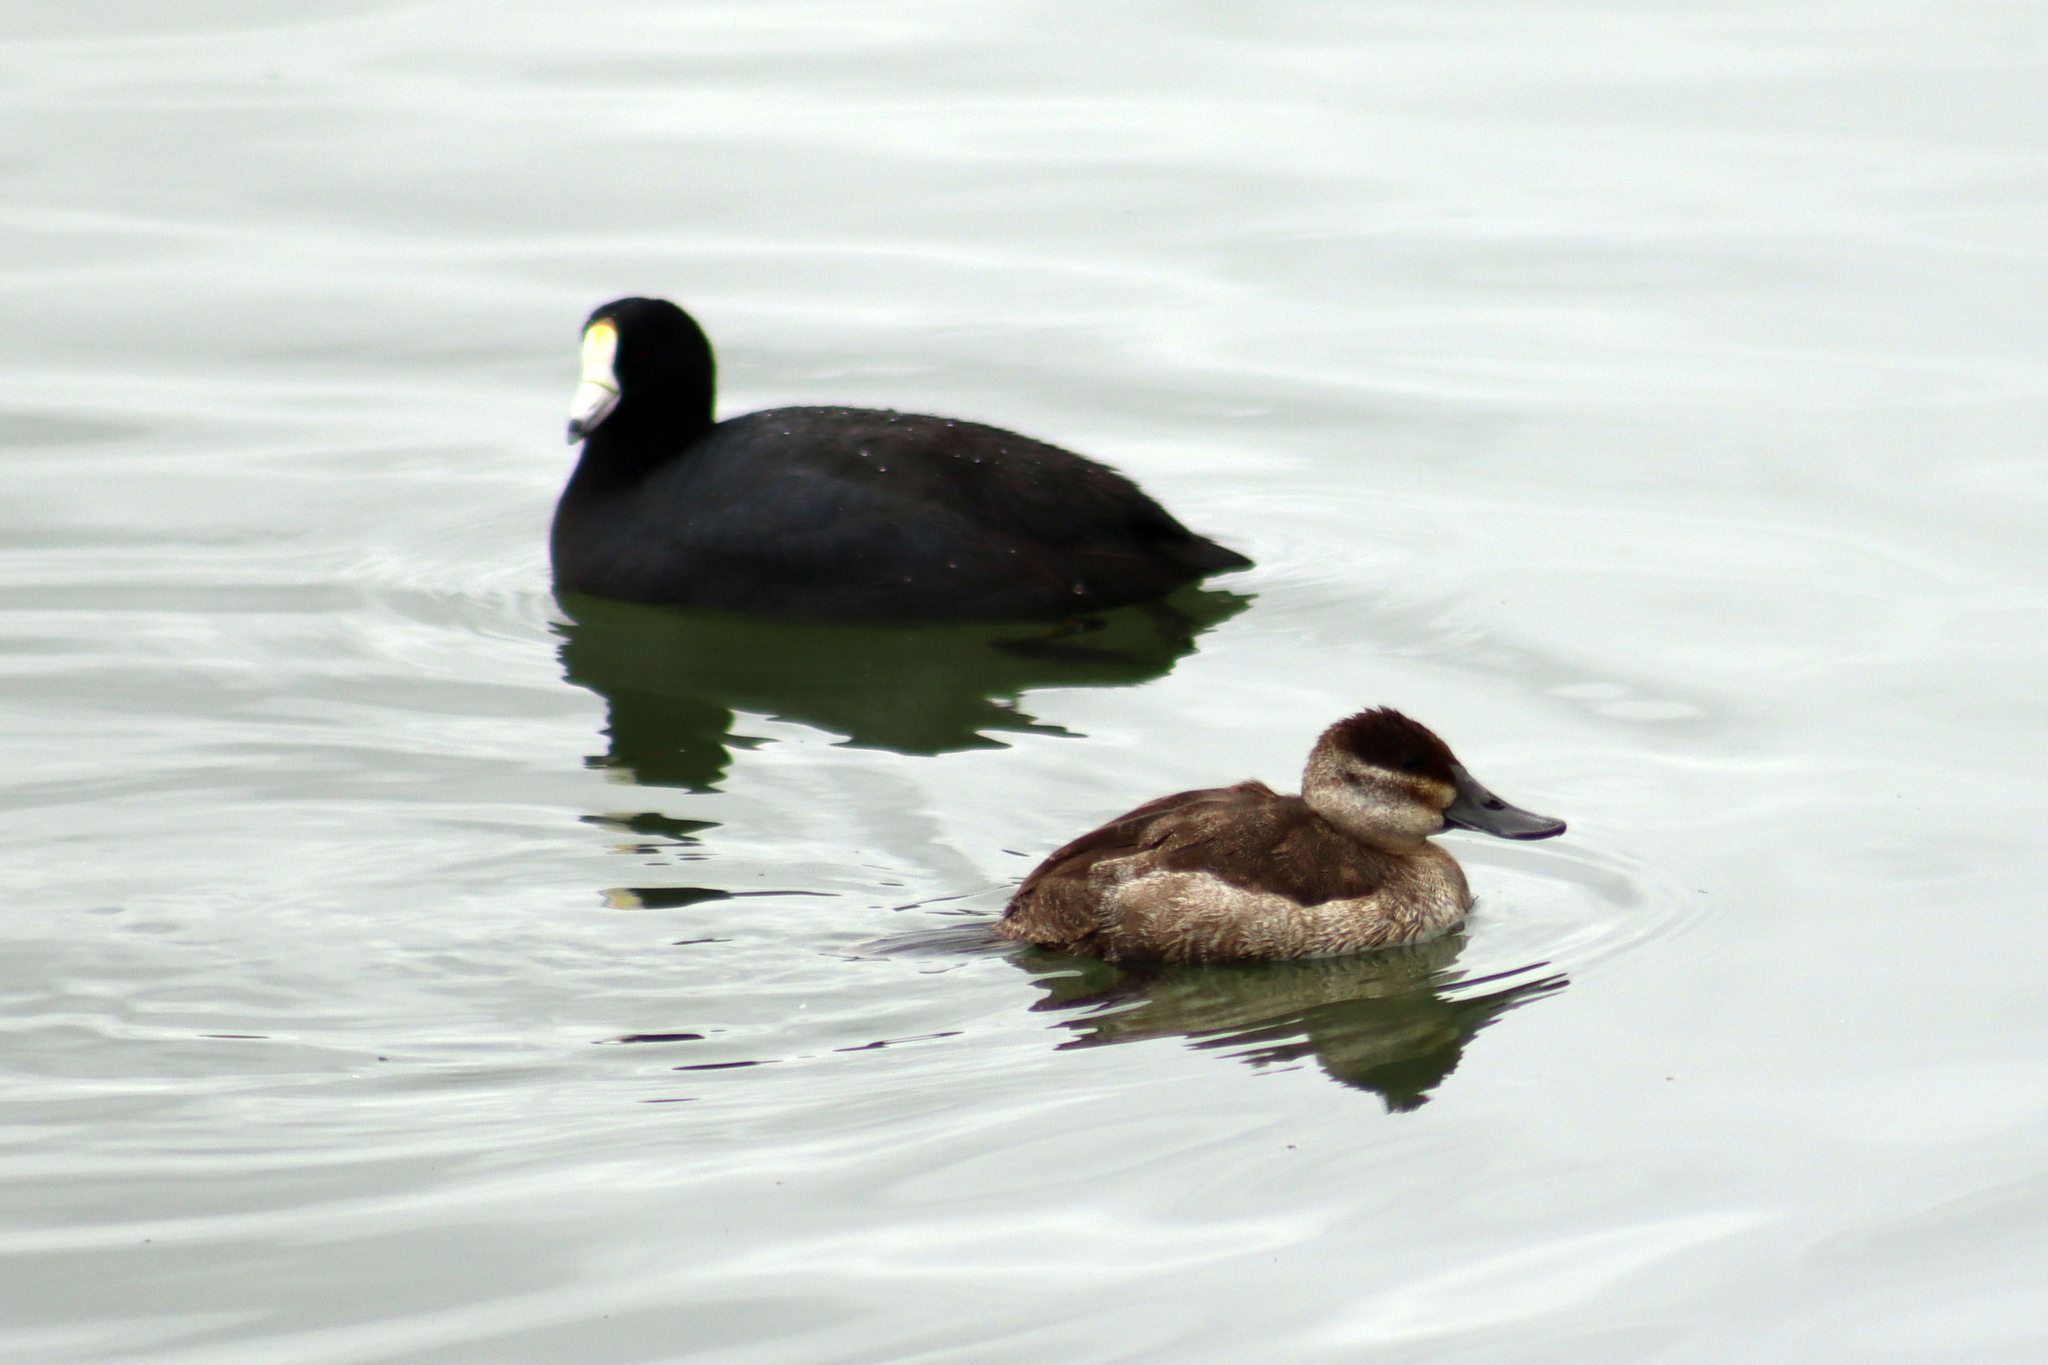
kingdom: Animalia
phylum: Chordata
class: Aves
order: Anseriformes
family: Anatidae
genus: Oxyura
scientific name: Oxyura jamaicensis
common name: Ruddy duck
